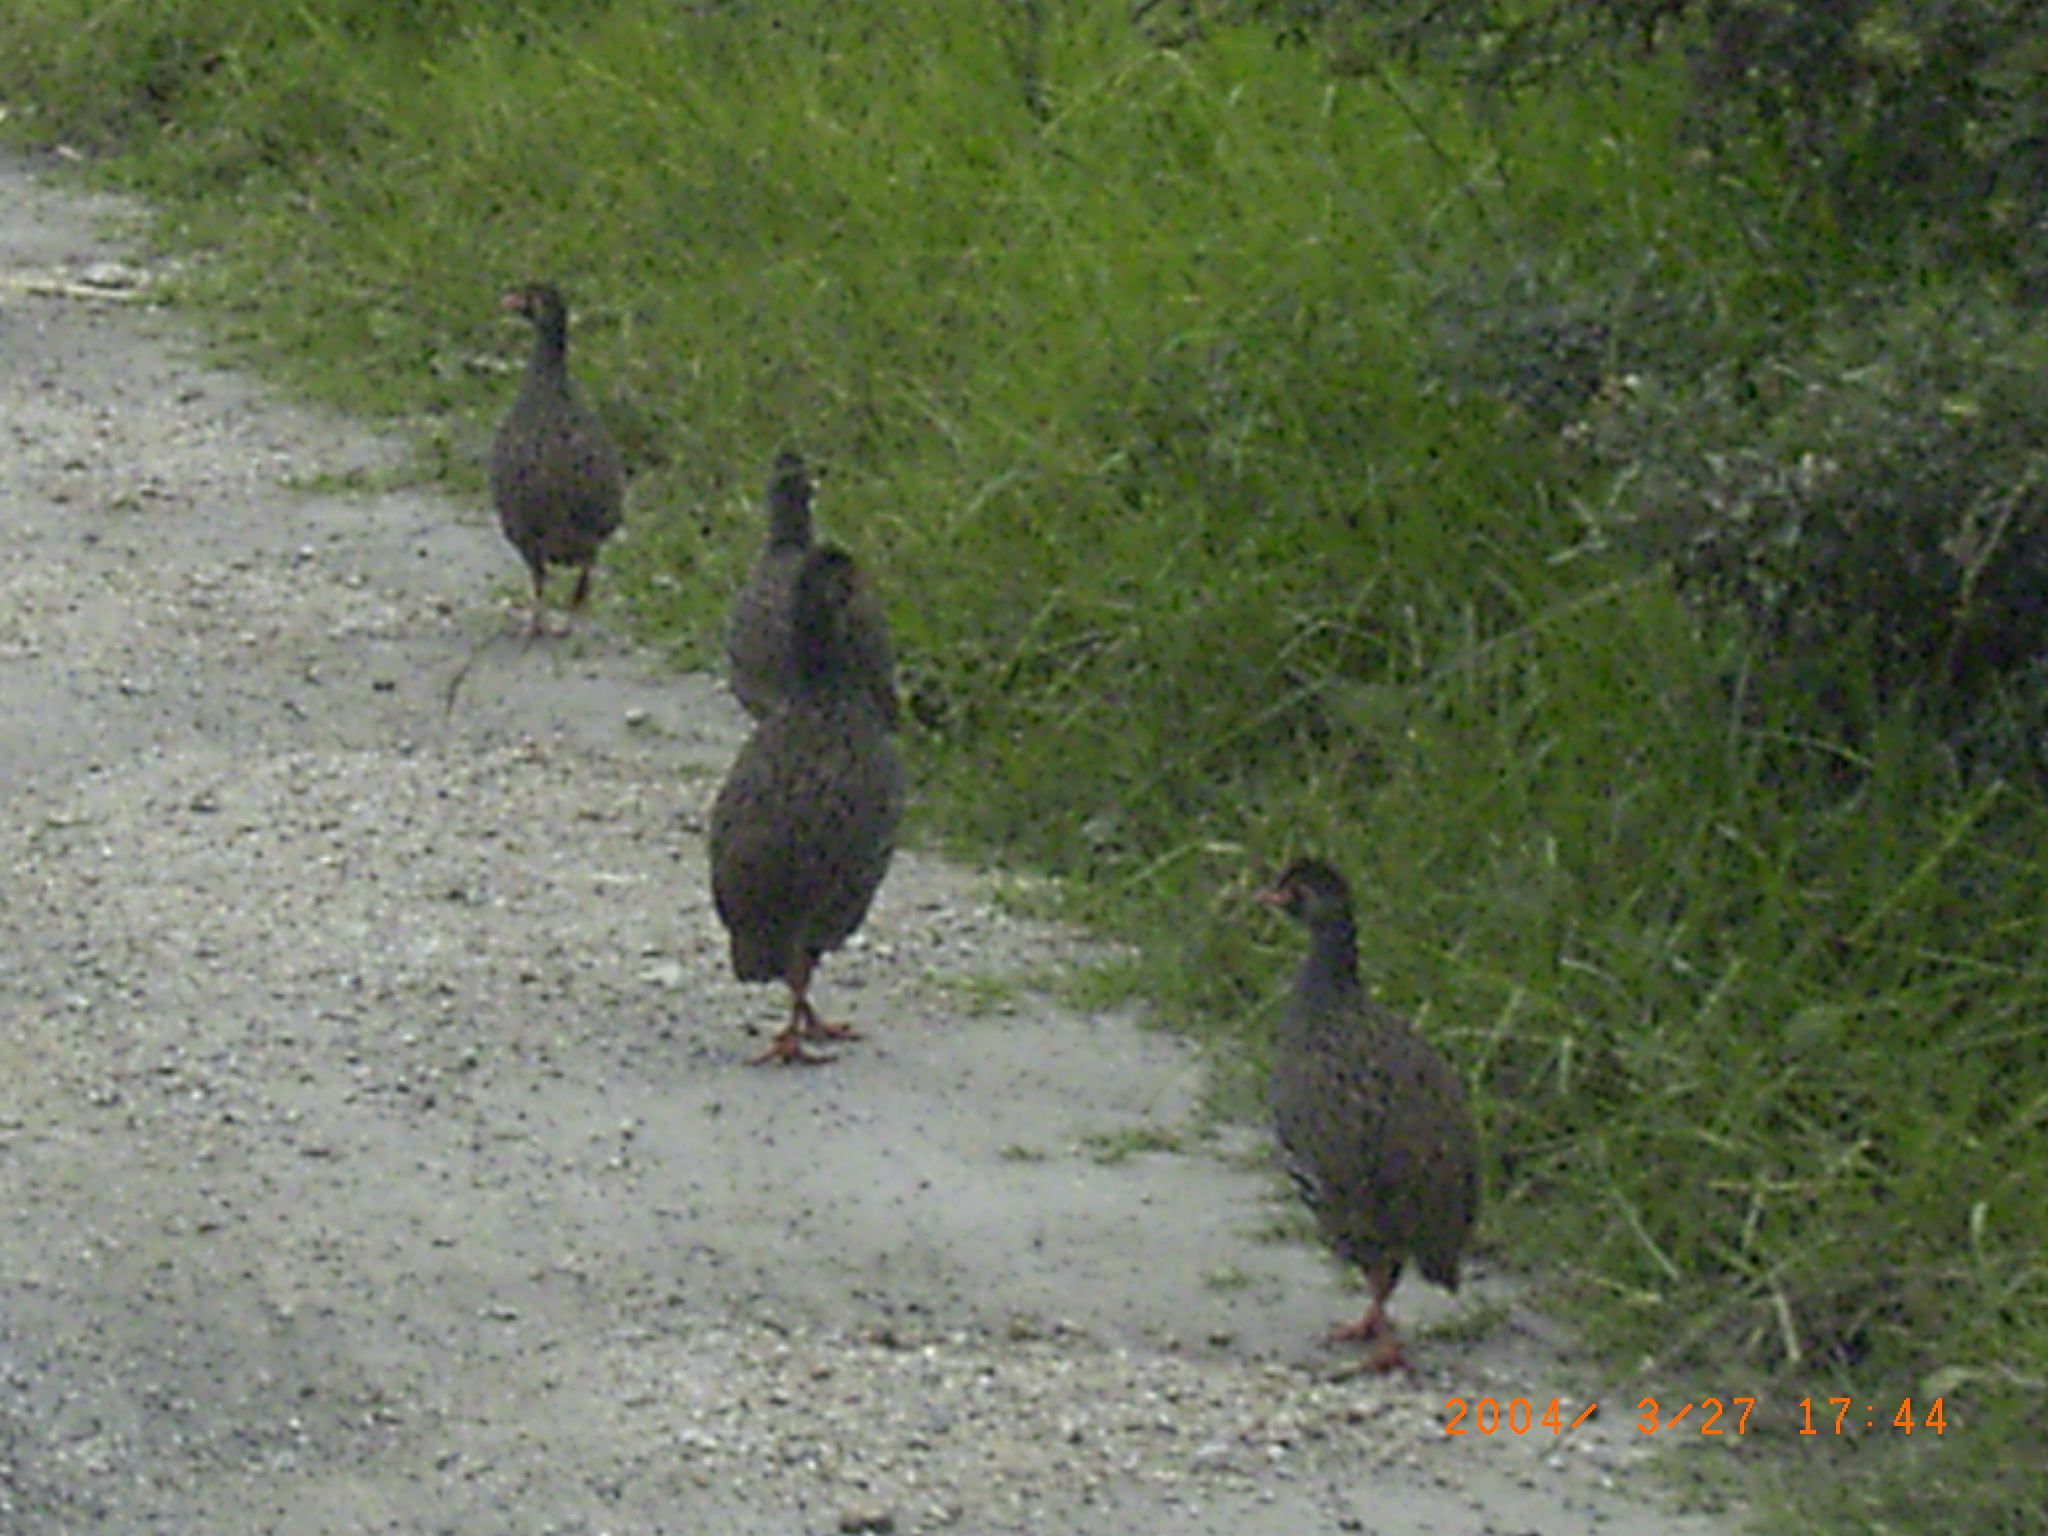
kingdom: Animalia
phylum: Chordata
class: Aves
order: Galliformes
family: Phasianidae
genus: Pternistis
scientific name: Pternistis afer
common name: Red-necked spurfowl
